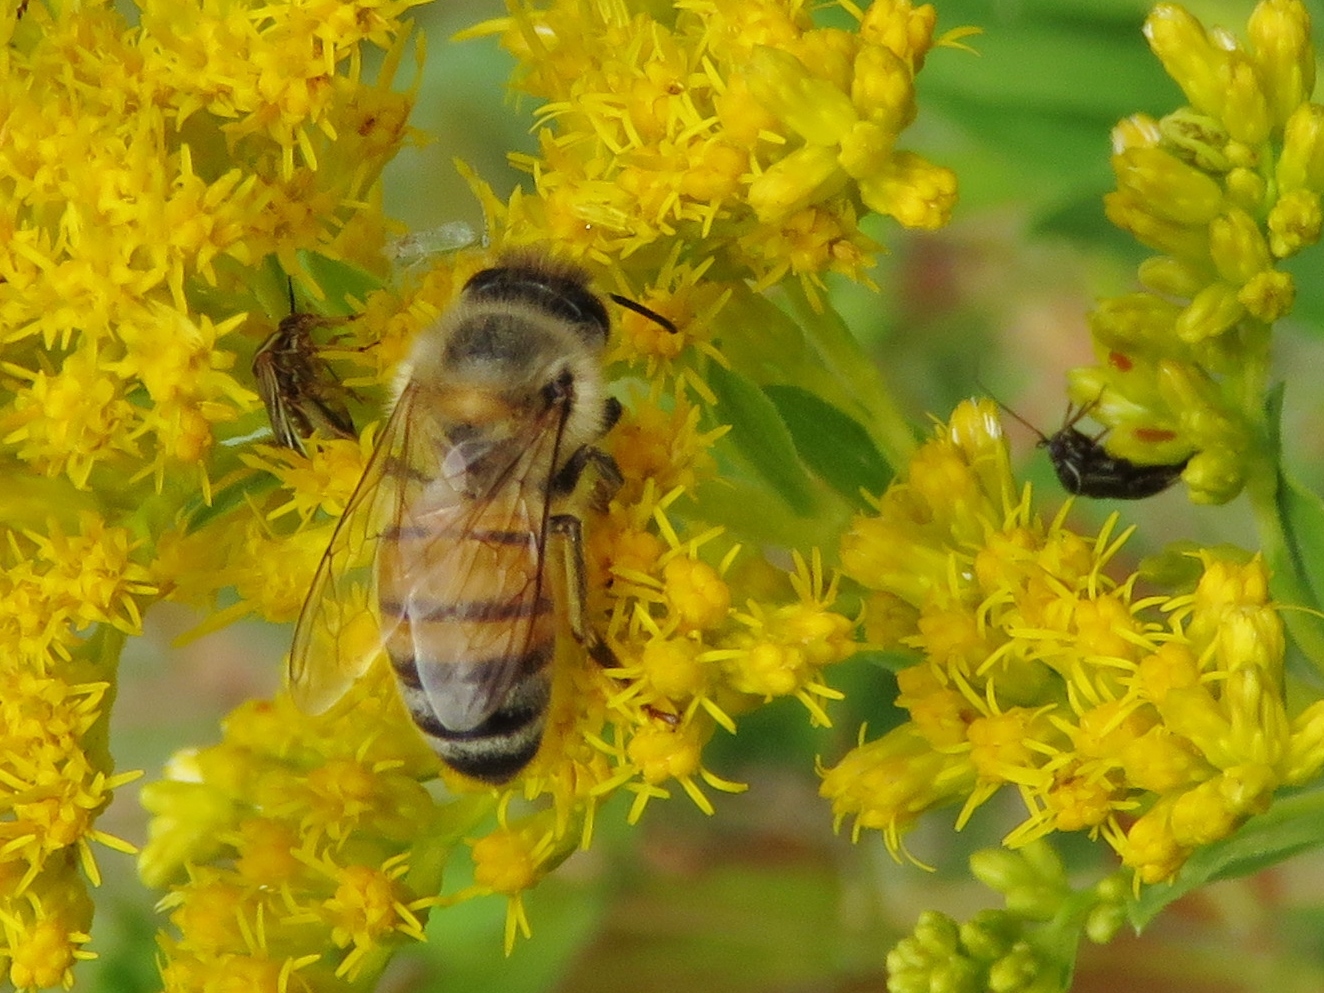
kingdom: Animalia
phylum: Arthropoda
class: Insecta
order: Hymenoptera
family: Apidae
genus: Apis
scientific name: Apis mellifera
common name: Honey bee
